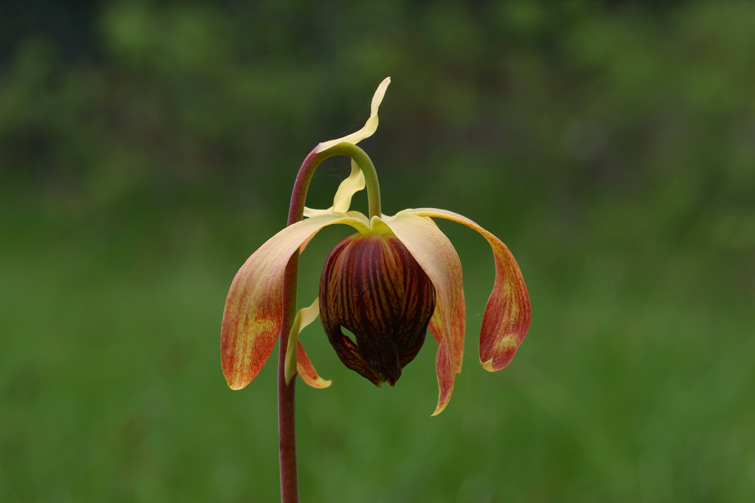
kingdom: Plantae
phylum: Tracheophyta
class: Magnoliopsida
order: Ericales
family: Sarraceniaceae
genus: Darlingtonia
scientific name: Darlingtonia californica
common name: California pitcher plant
